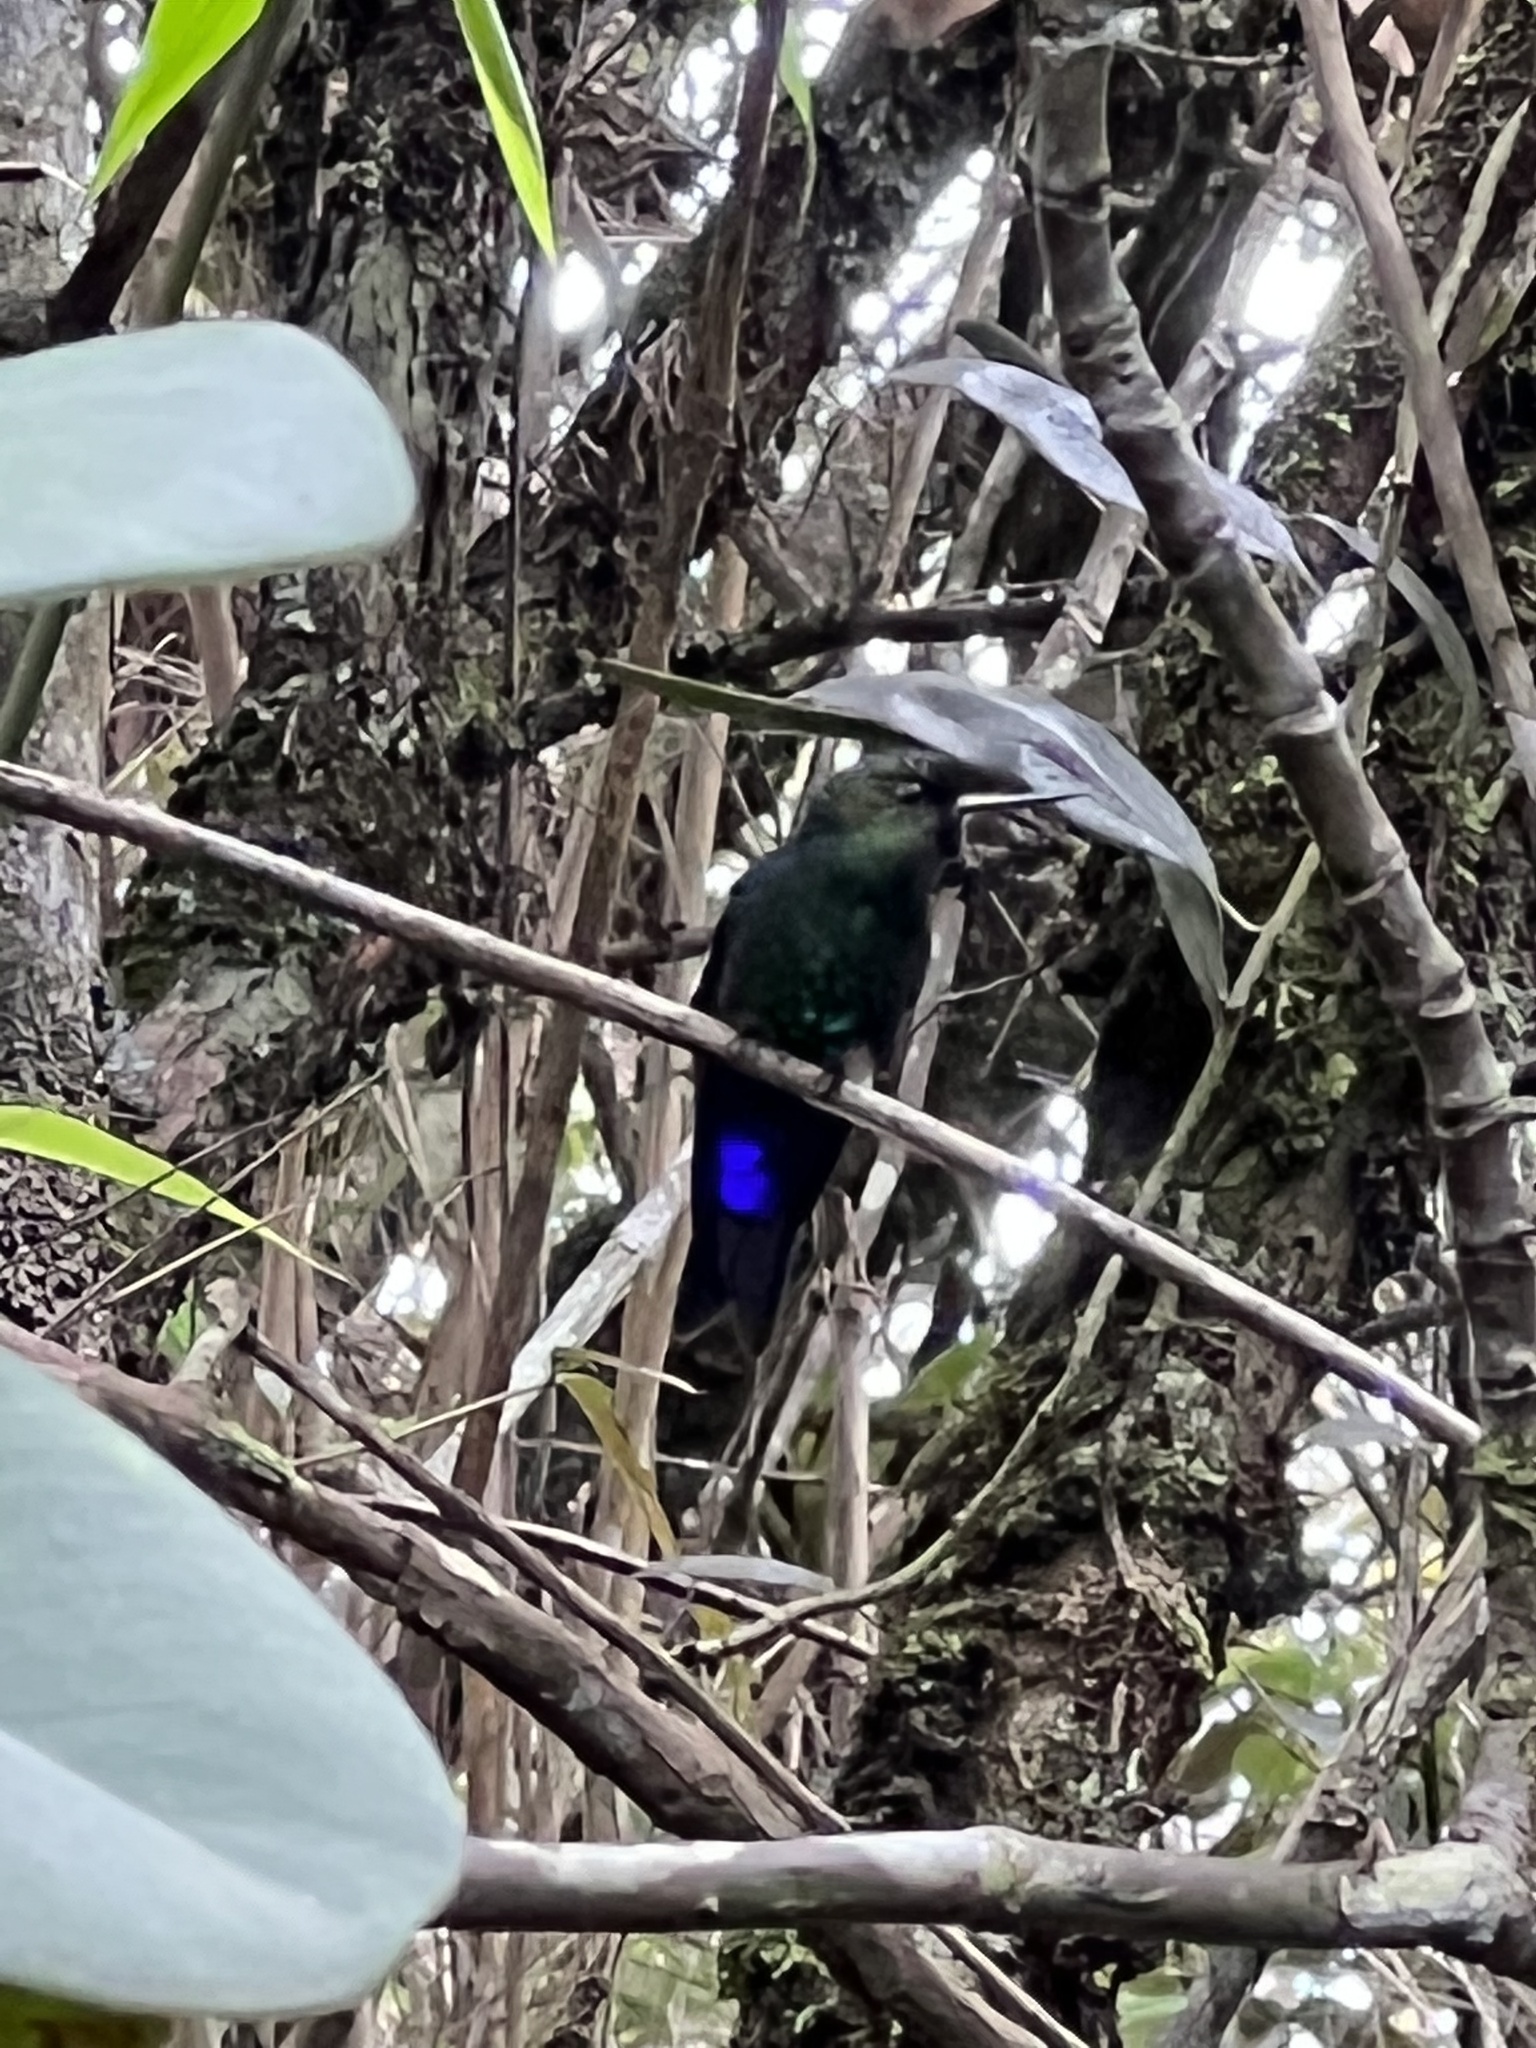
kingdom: Animalia
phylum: Chordata
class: Aves
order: Apodiformes
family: Trochilidae
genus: Eriocnemis
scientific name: Eriocnemis vestita
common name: Glowing puffleg
